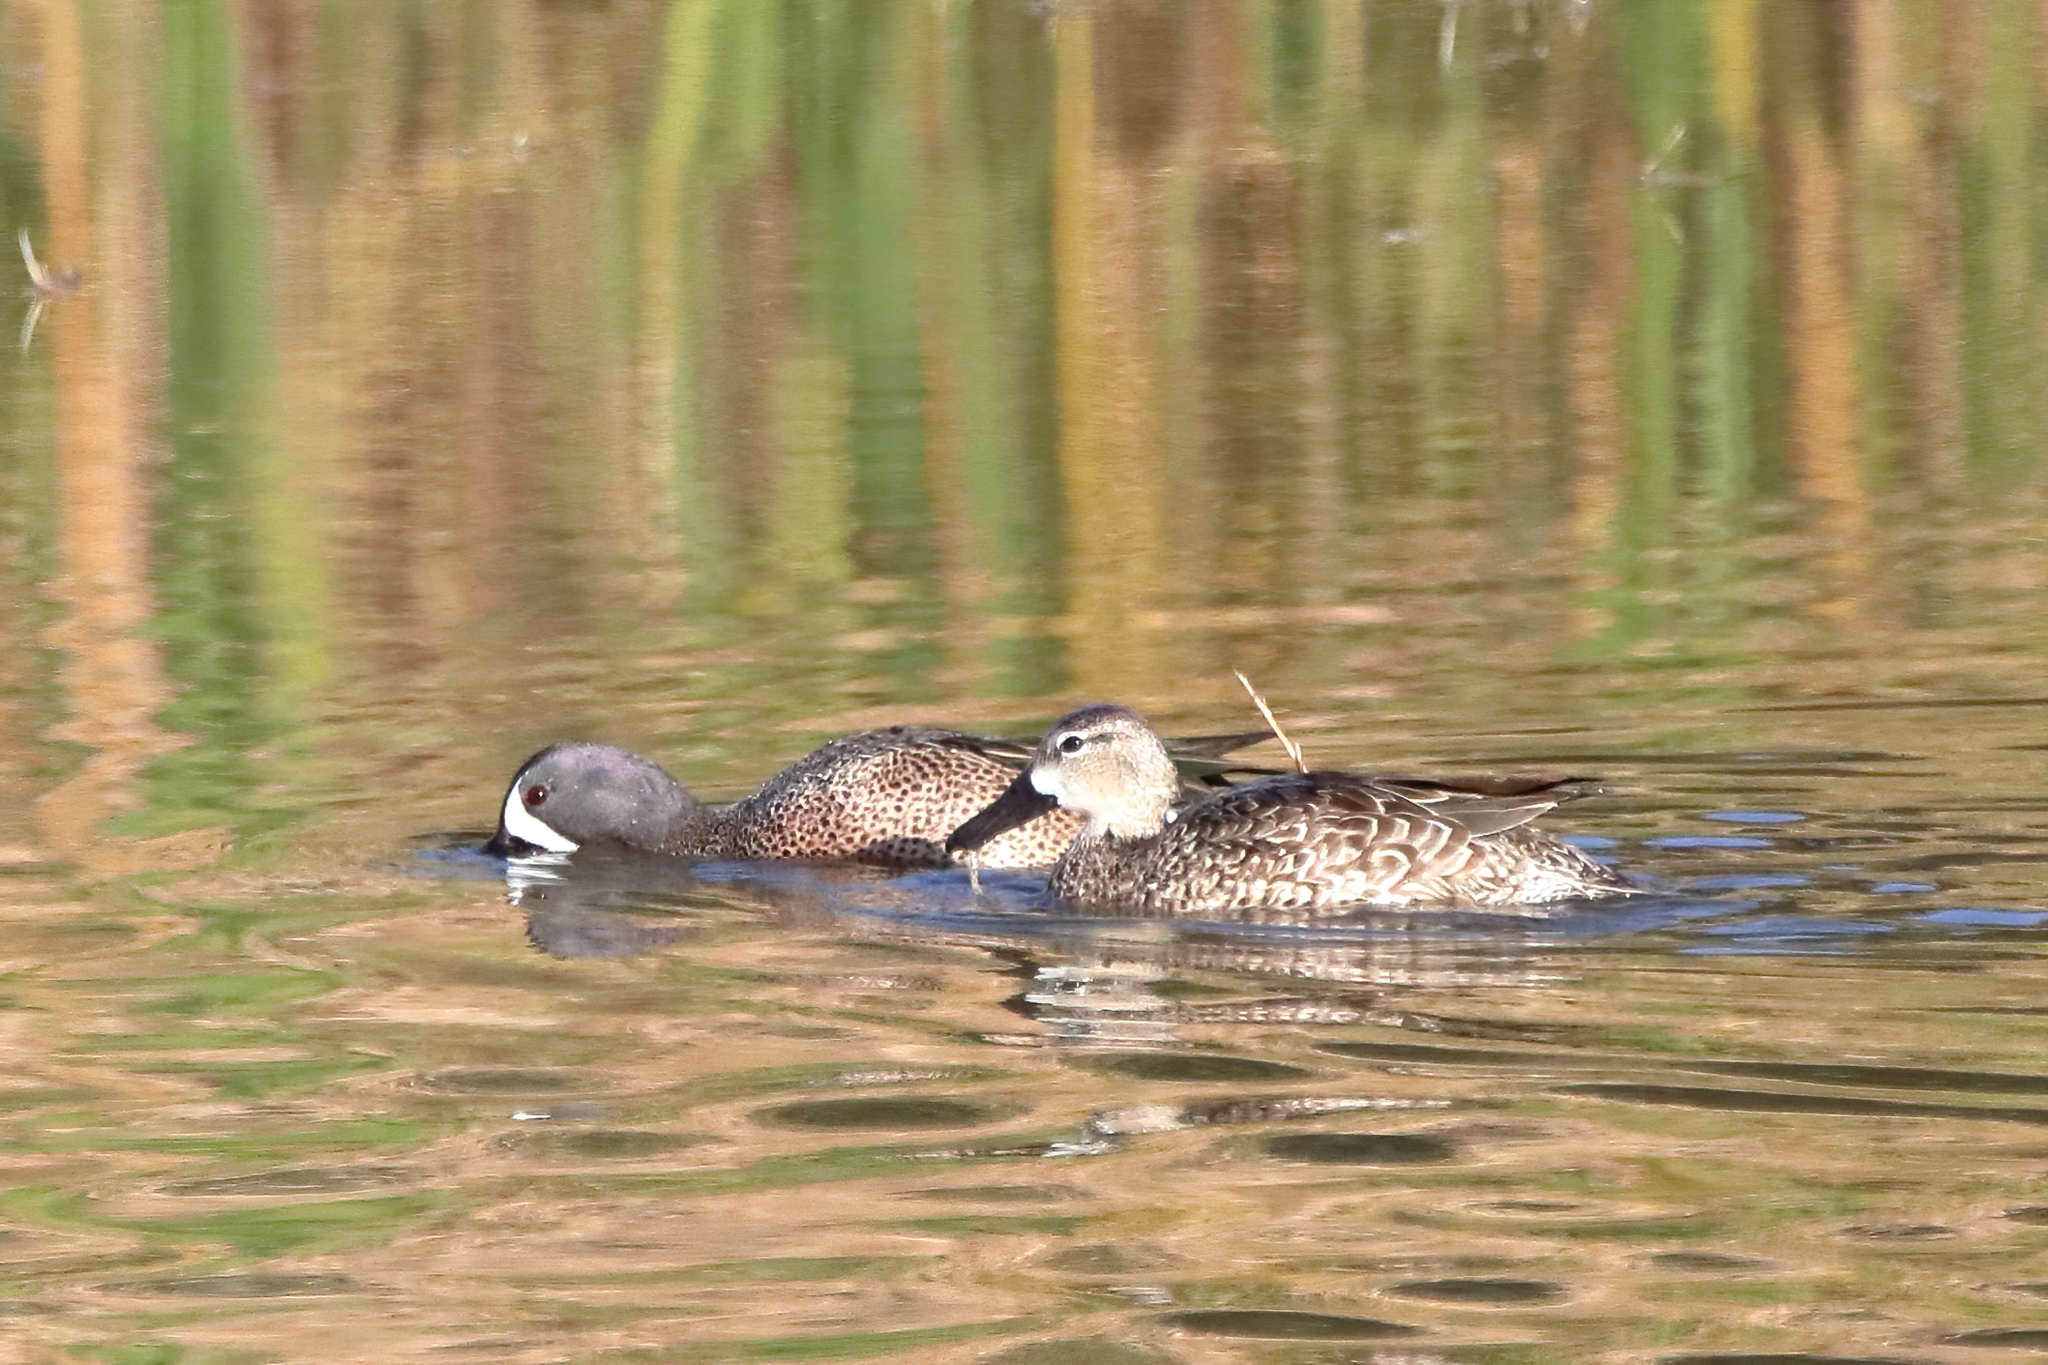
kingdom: Animalia
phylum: Chordata
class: Aves
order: Anseriformes
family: Anatidae
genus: Spatula
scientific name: Spatula discors
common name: Blue-winged teal
